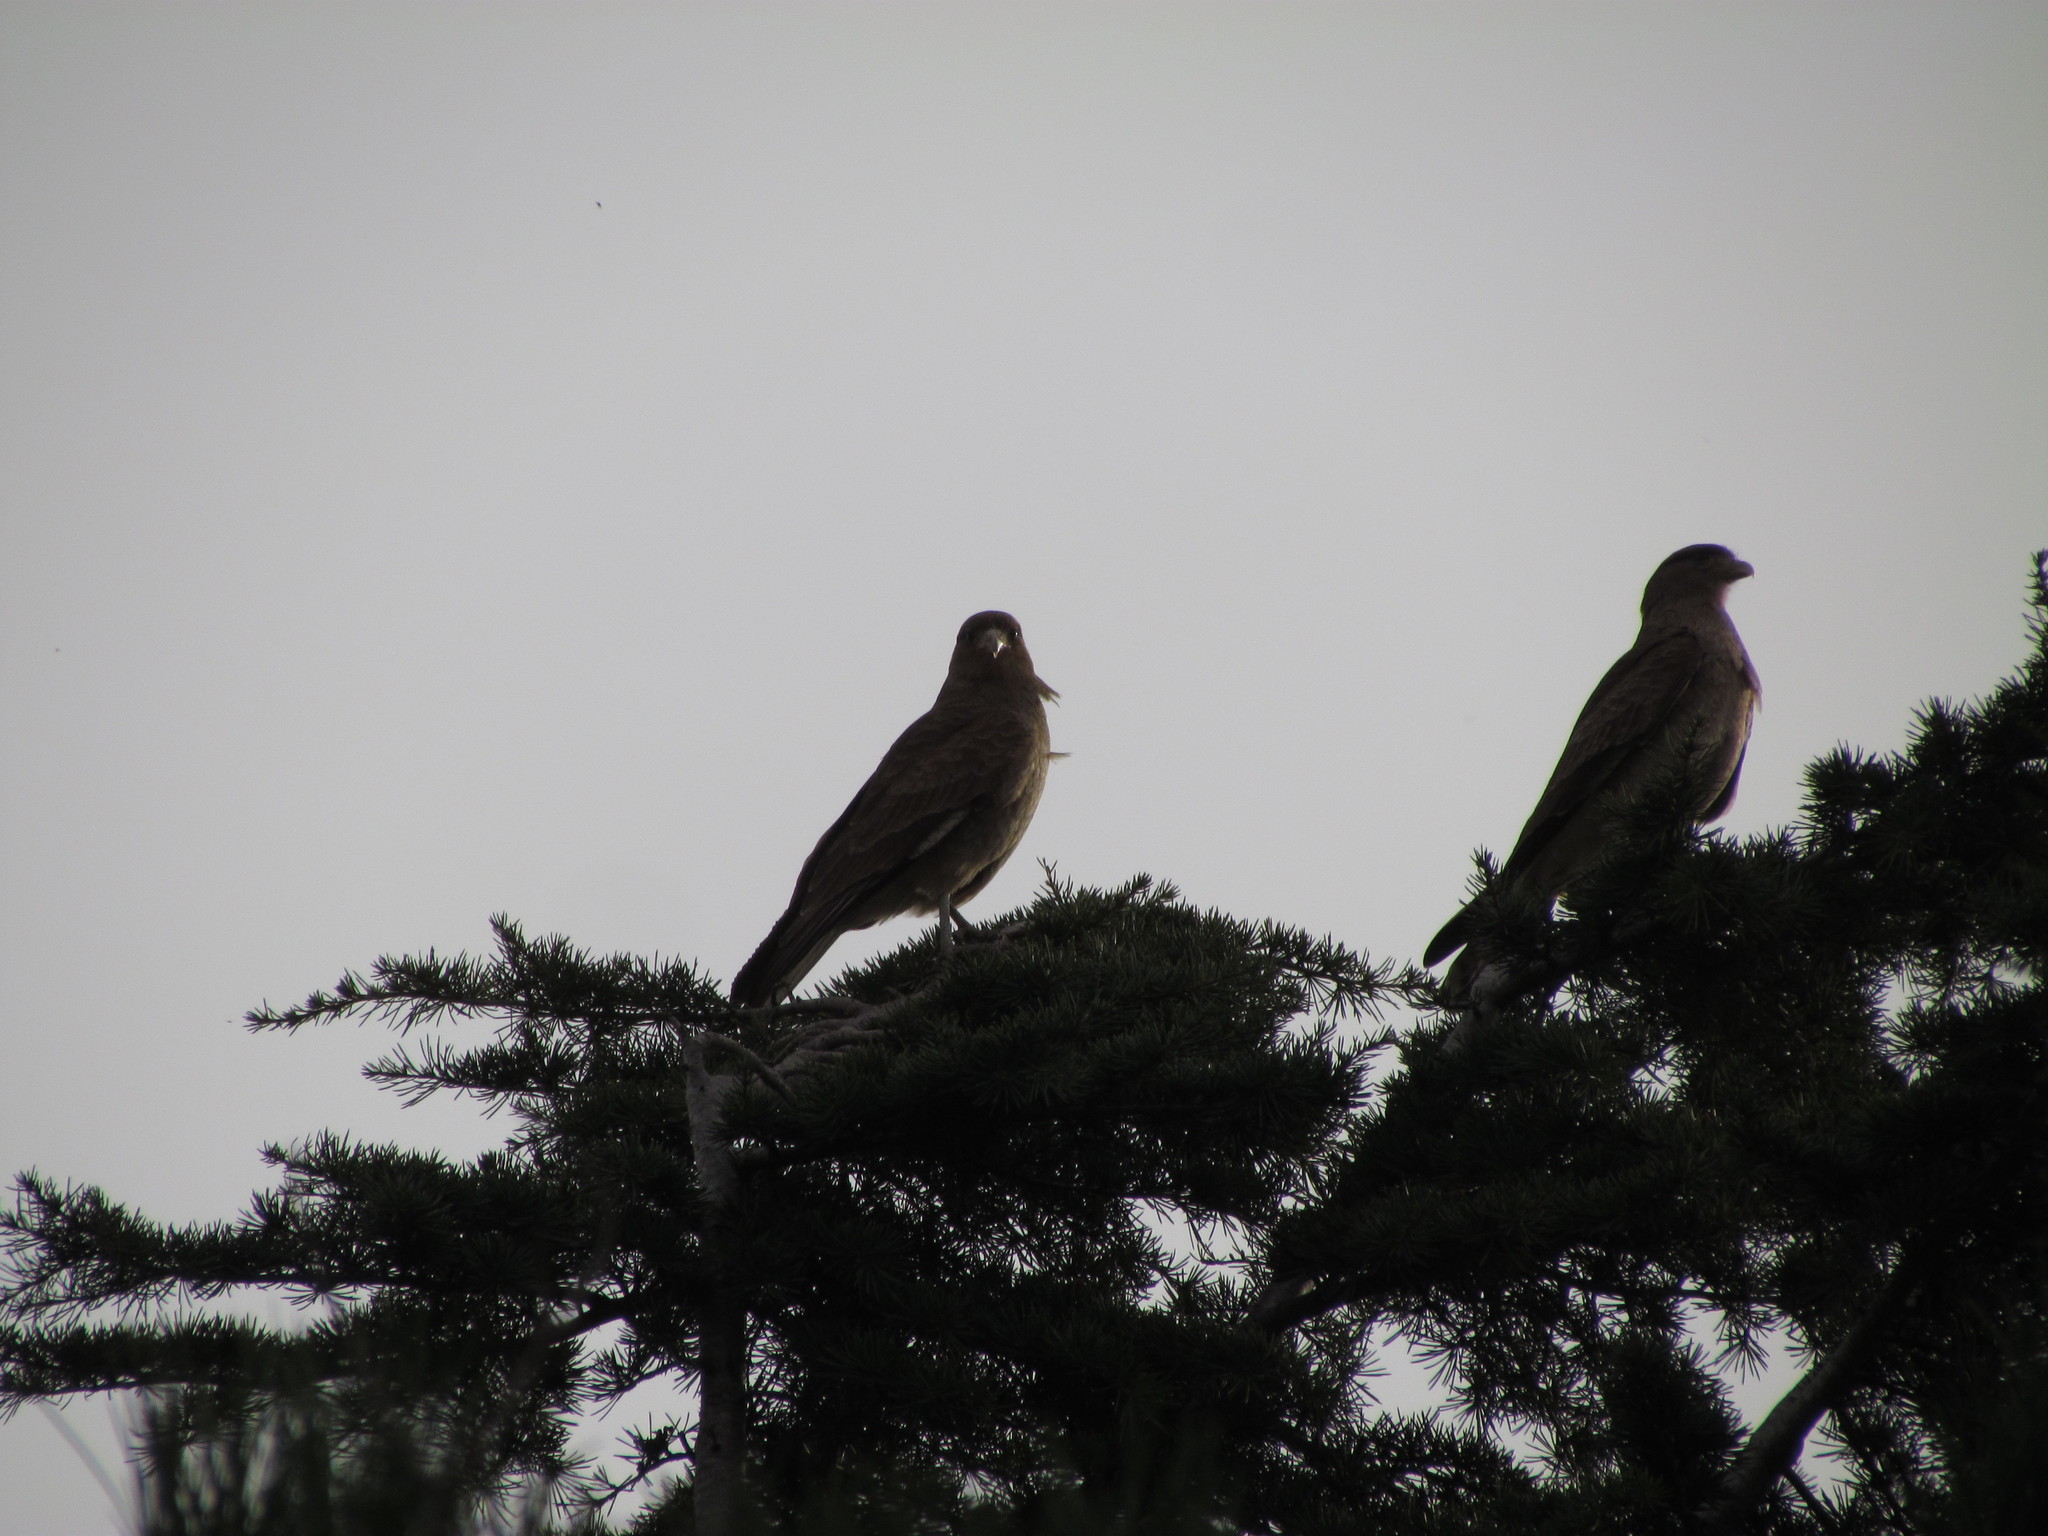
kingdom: Animalia
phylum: Chordata
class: Aves
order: Falconiformes
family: Falconidae
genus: Daptrius
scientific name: Daptrius
